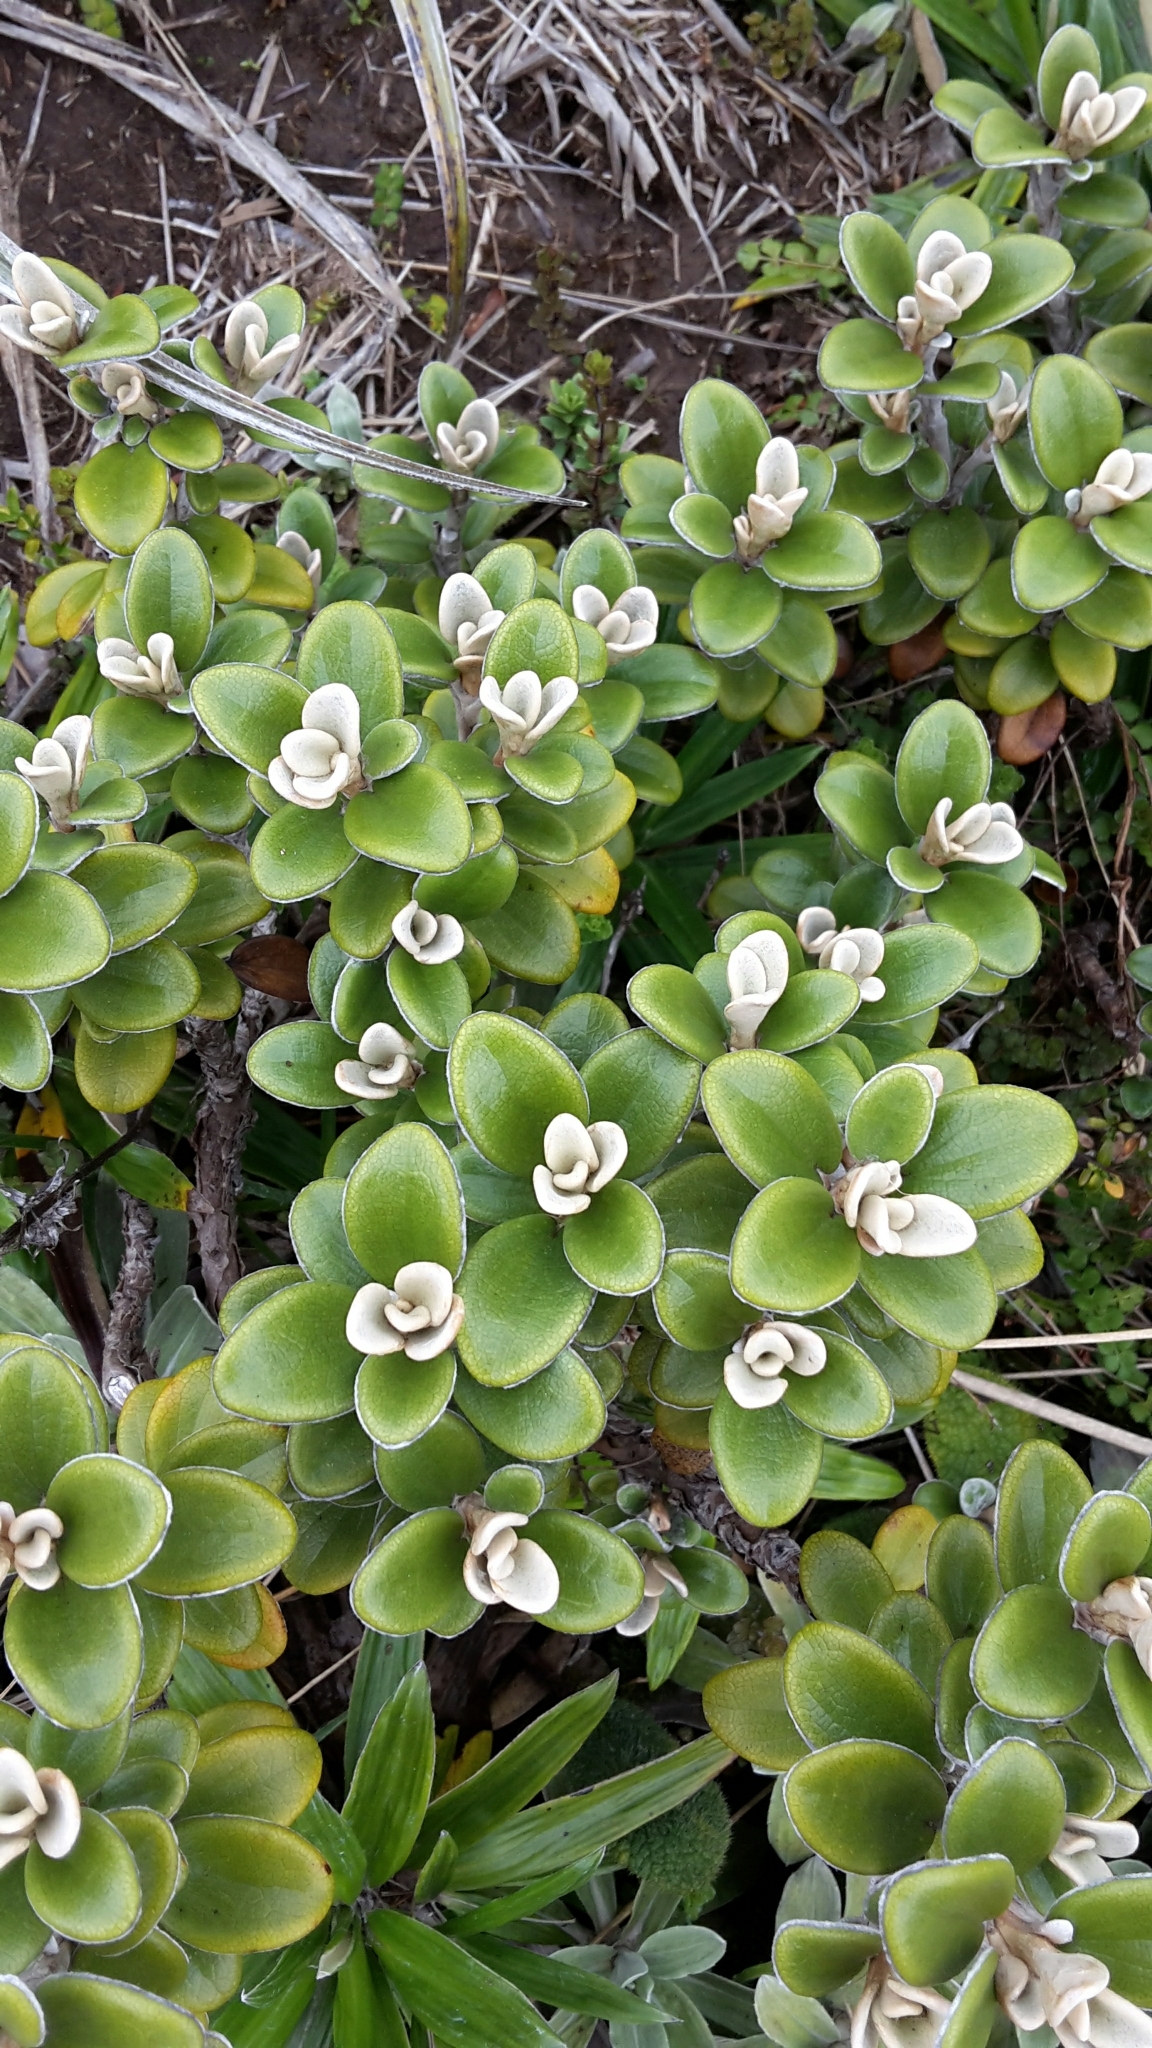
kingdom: Plantae
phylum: Tracheophyta
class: Magnoliopsida
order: Asterales
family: Asteraceae
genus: Brachyglottis
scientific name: Brachyglottis bidwillii
